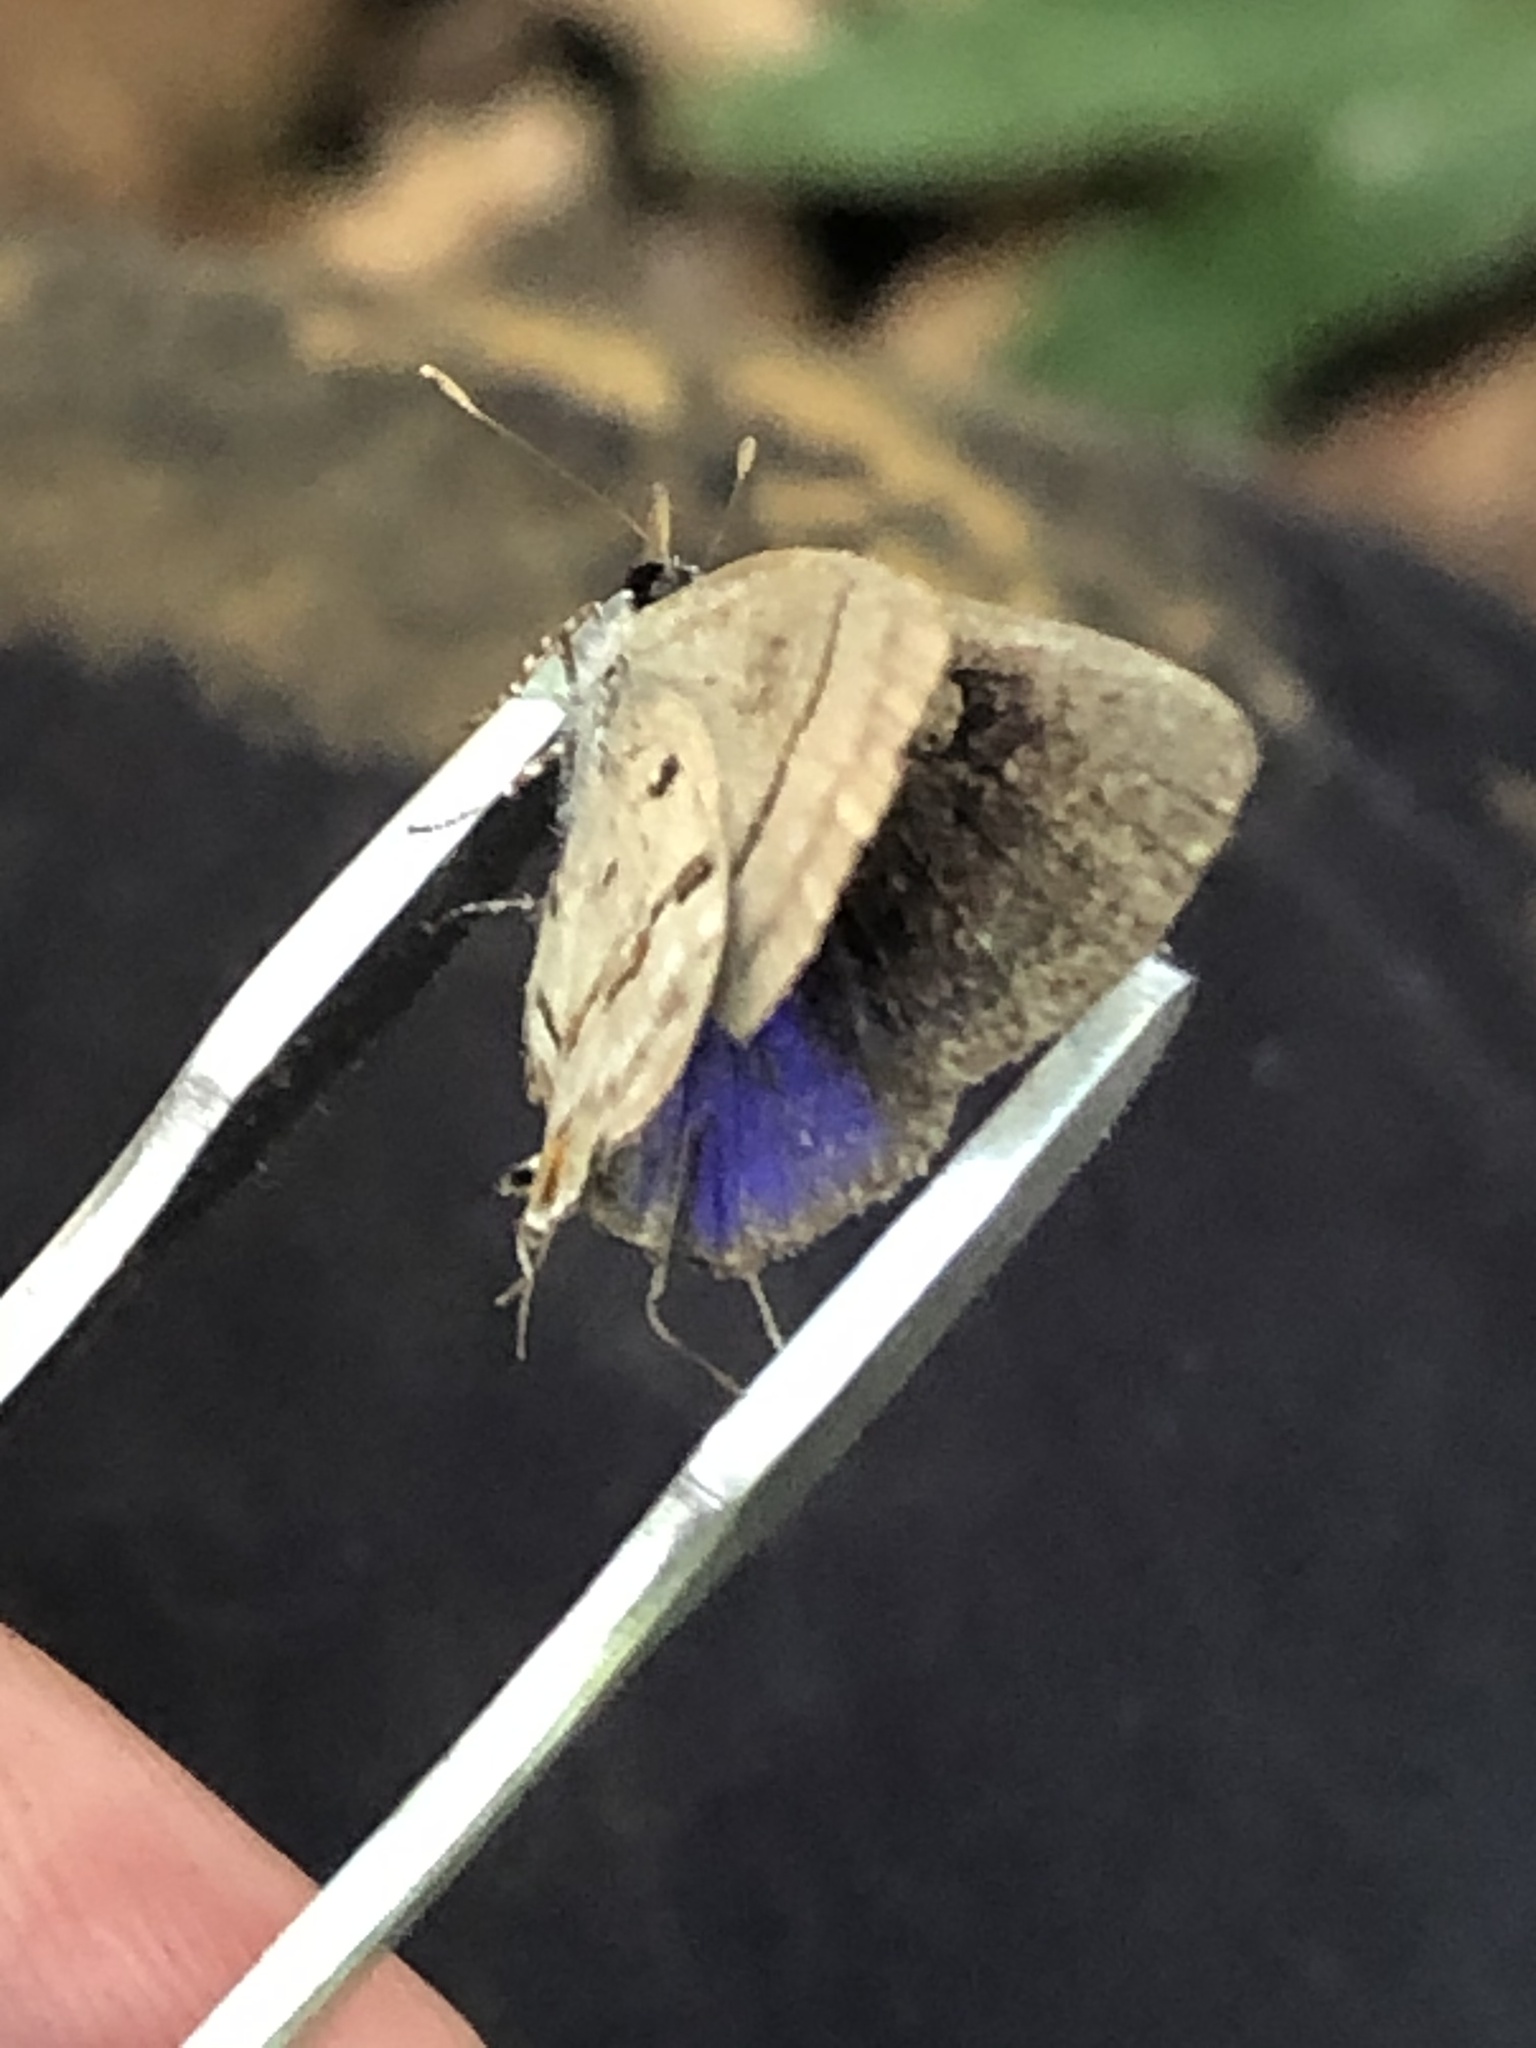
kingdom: Animalia
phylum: Arthropoda
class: Insecta
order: Lepidoptera
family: Lycaenidae
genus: Thecla
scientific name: Thecla alda
